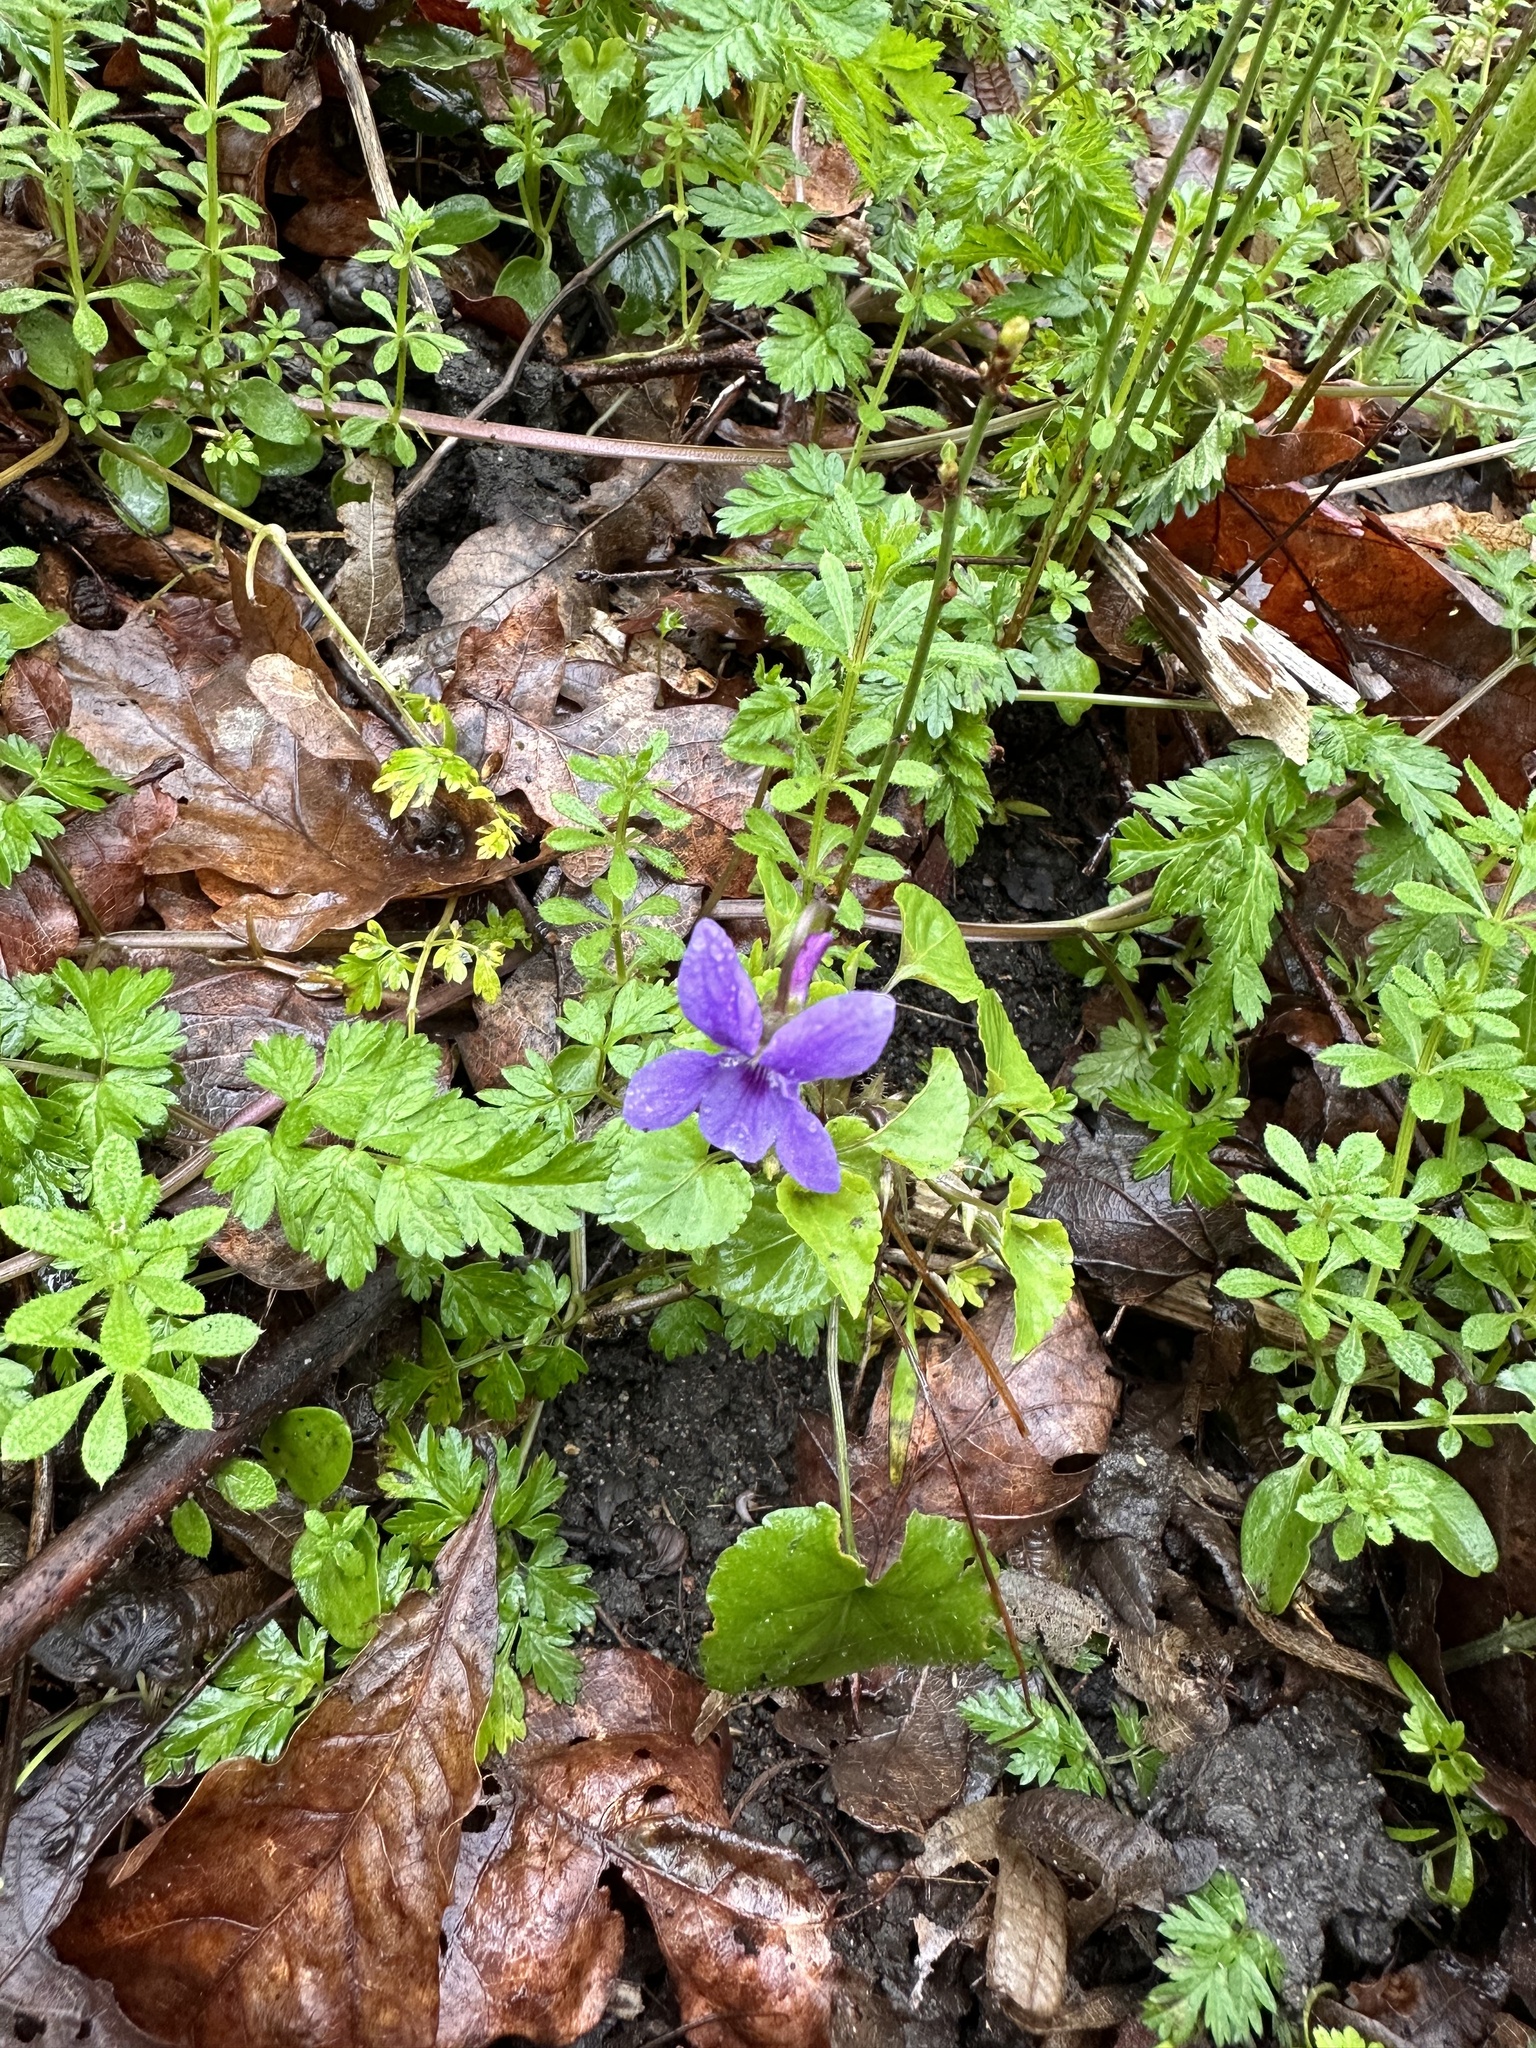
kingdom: Plantae
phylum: Tracheophyta
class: Magnoliopsida
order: Malpighiales
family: Violaceae
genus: Viola
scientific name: Viola reichenbachiana
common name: Early dog-violet
